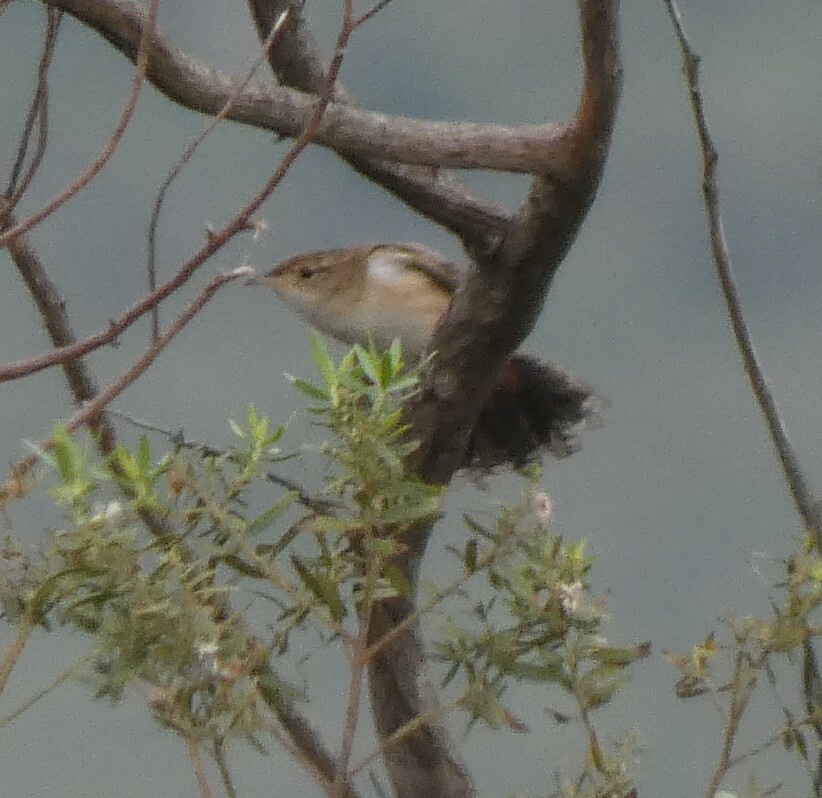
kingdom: Animalia
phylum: Chordata
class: Aves
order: Passeriformes
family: Troglodytidae
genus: Cistothorus
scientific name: Cistothorus platensis
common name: Sedge wren
